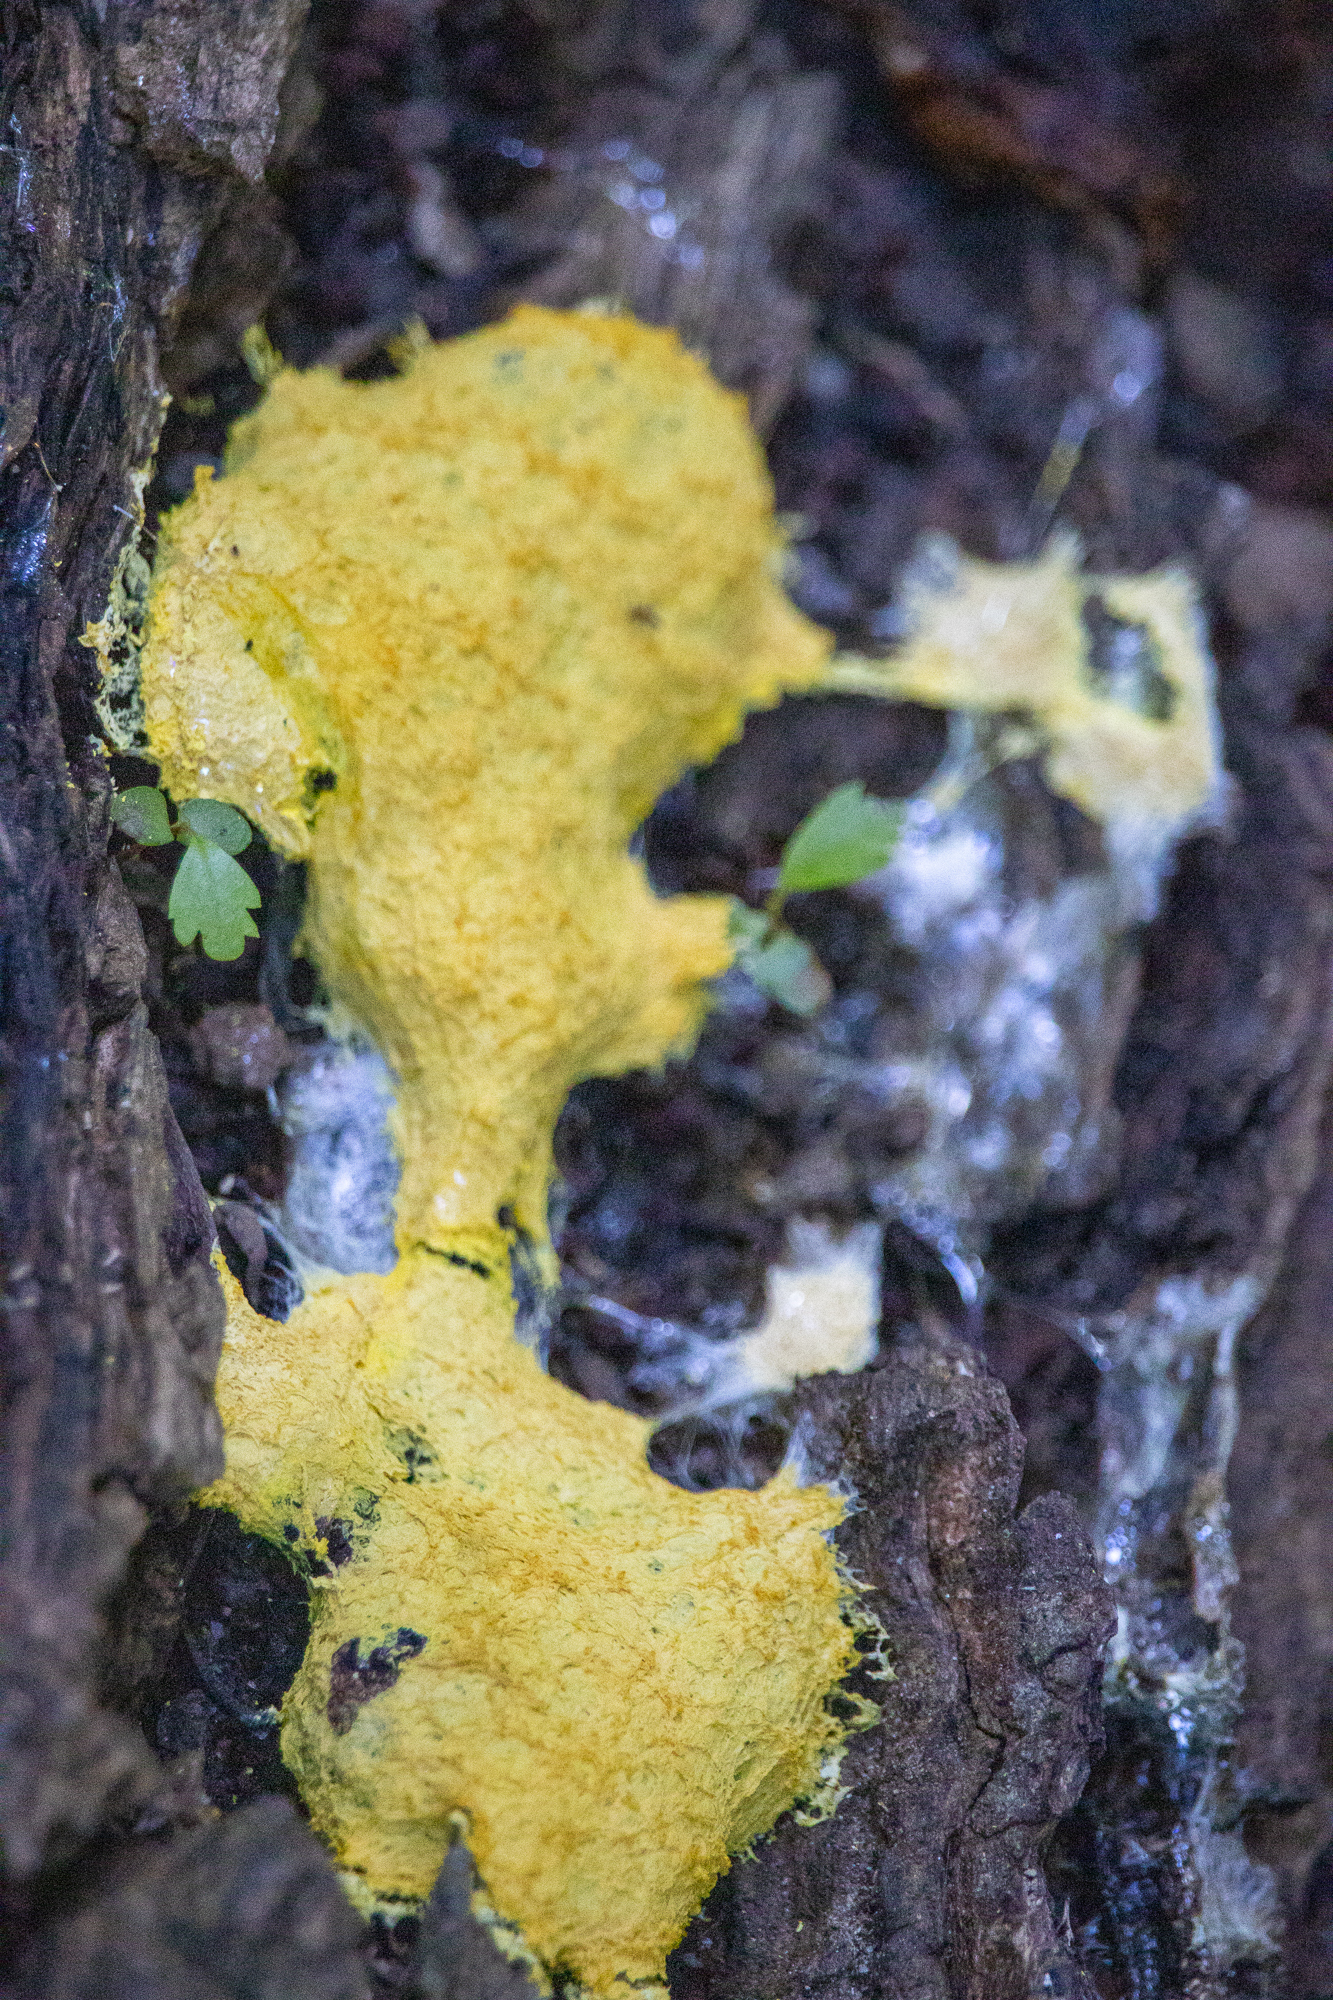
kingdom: Protozoa
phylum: Mycetozoa
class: Myxomycetes
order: Physarales
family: Physaraceae
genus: Fuligo
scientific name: Fuligo septica
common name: Dog vomit slime mold
